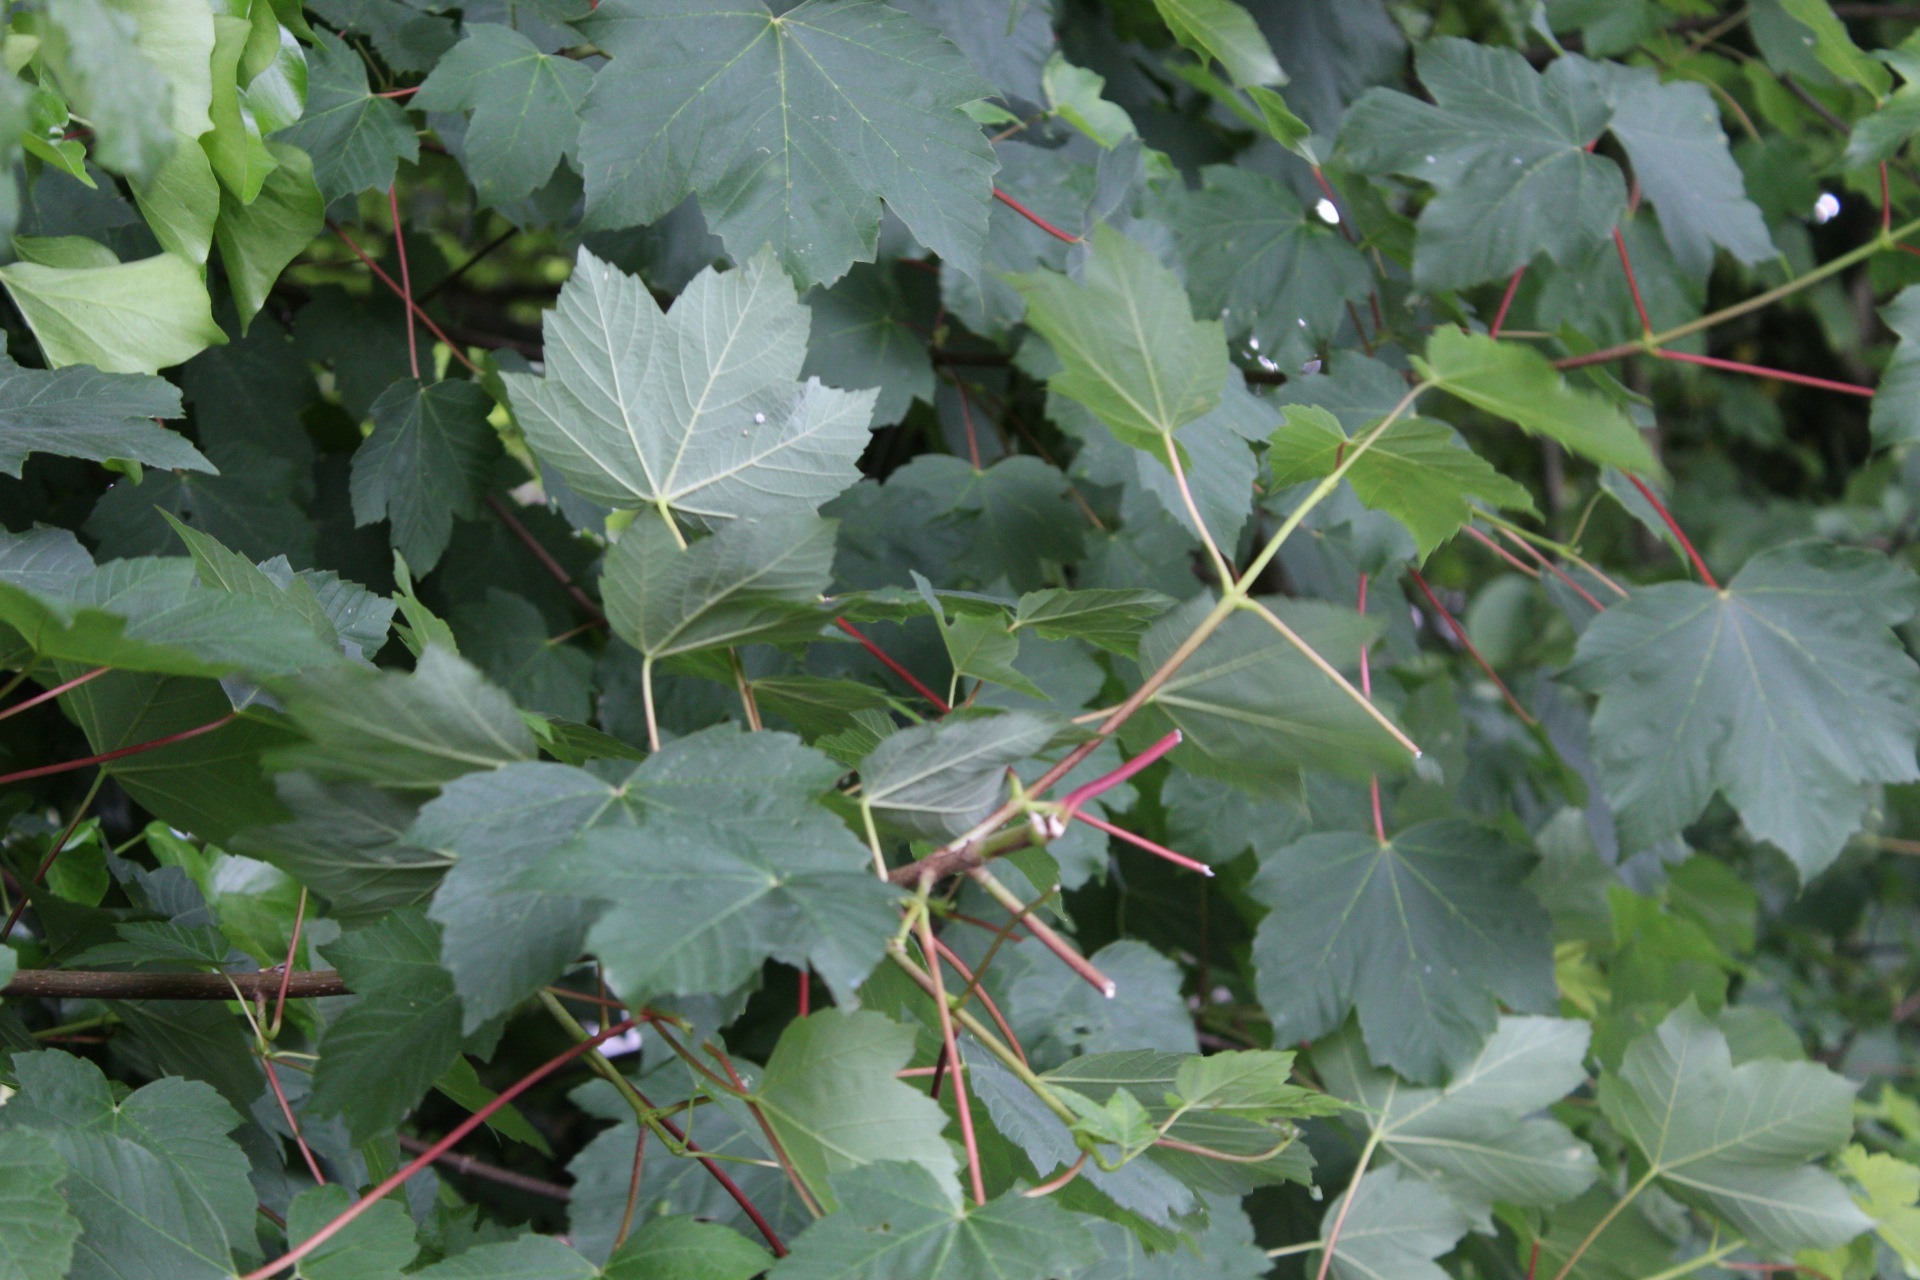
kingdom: Plantae
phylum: Tracheophyta
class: Magnoliopsida
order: Sapindales
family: Sapindaceae
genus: Acer
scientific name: Acer pseudoplatanus
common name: Sycamore
